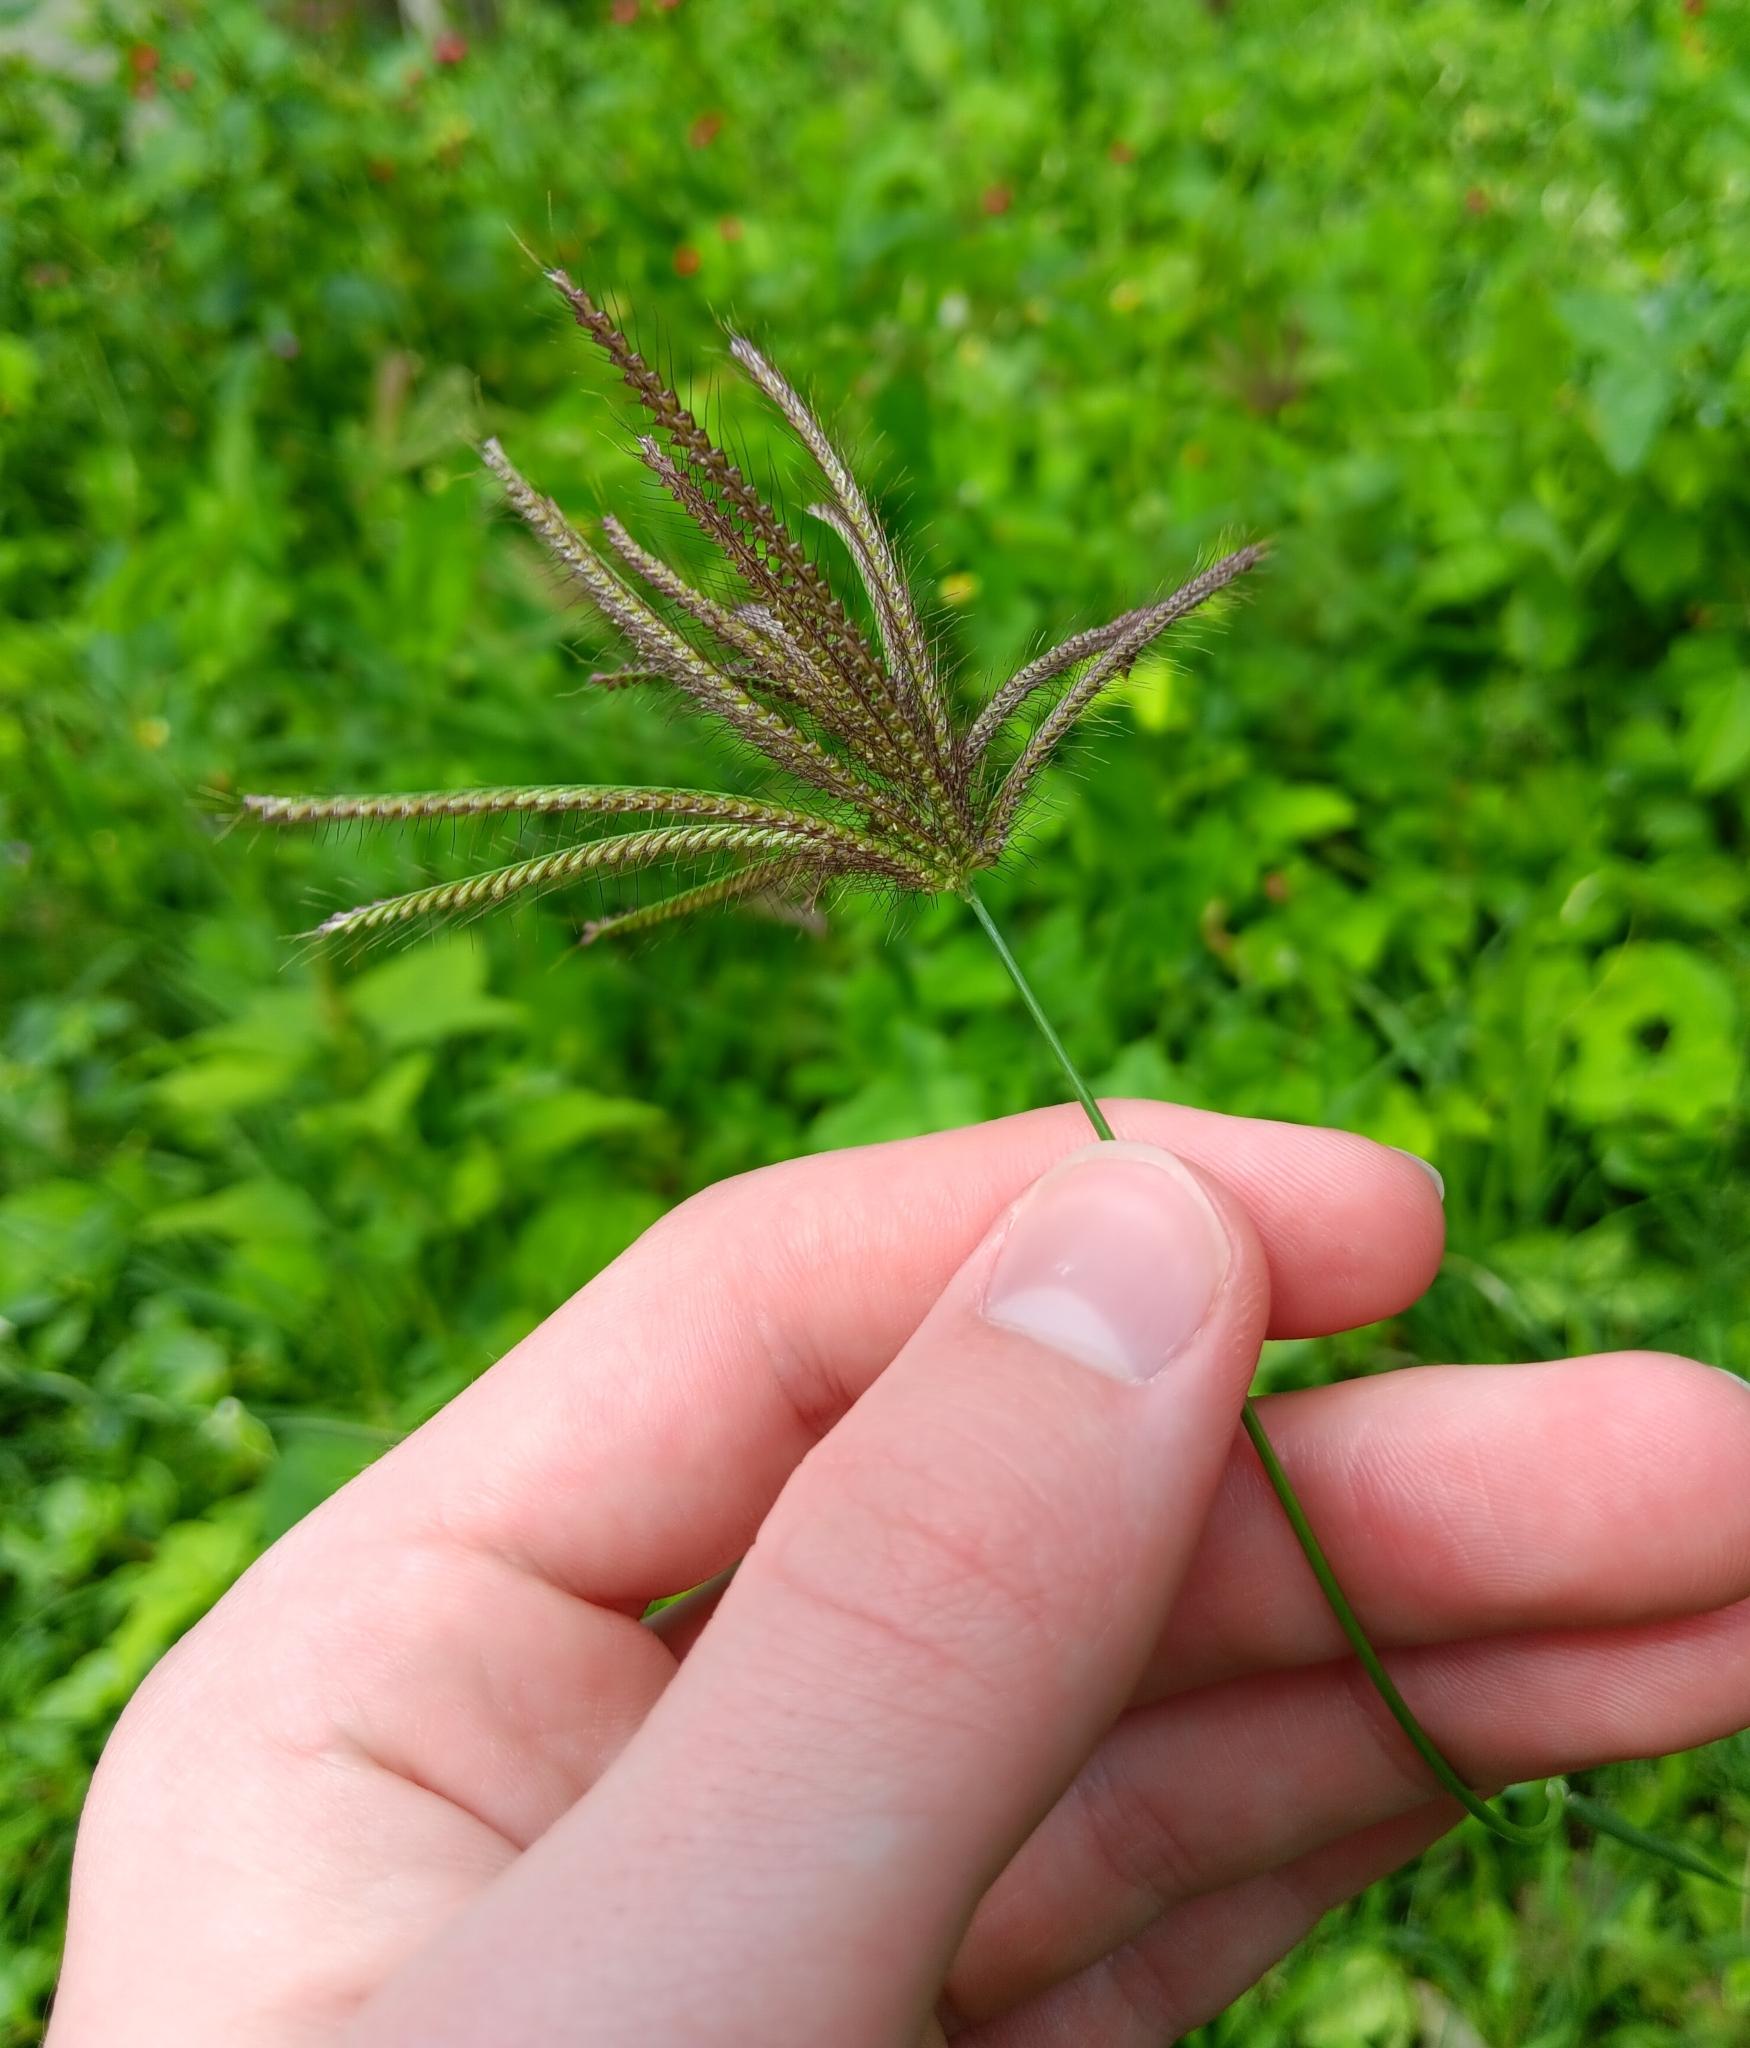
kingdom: Plantae
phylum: Tracheophyta
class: Liliopsida
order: Poales
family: Poaceae
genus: Chloris
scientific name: Chloris barbata
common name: Swollen fingergrass
